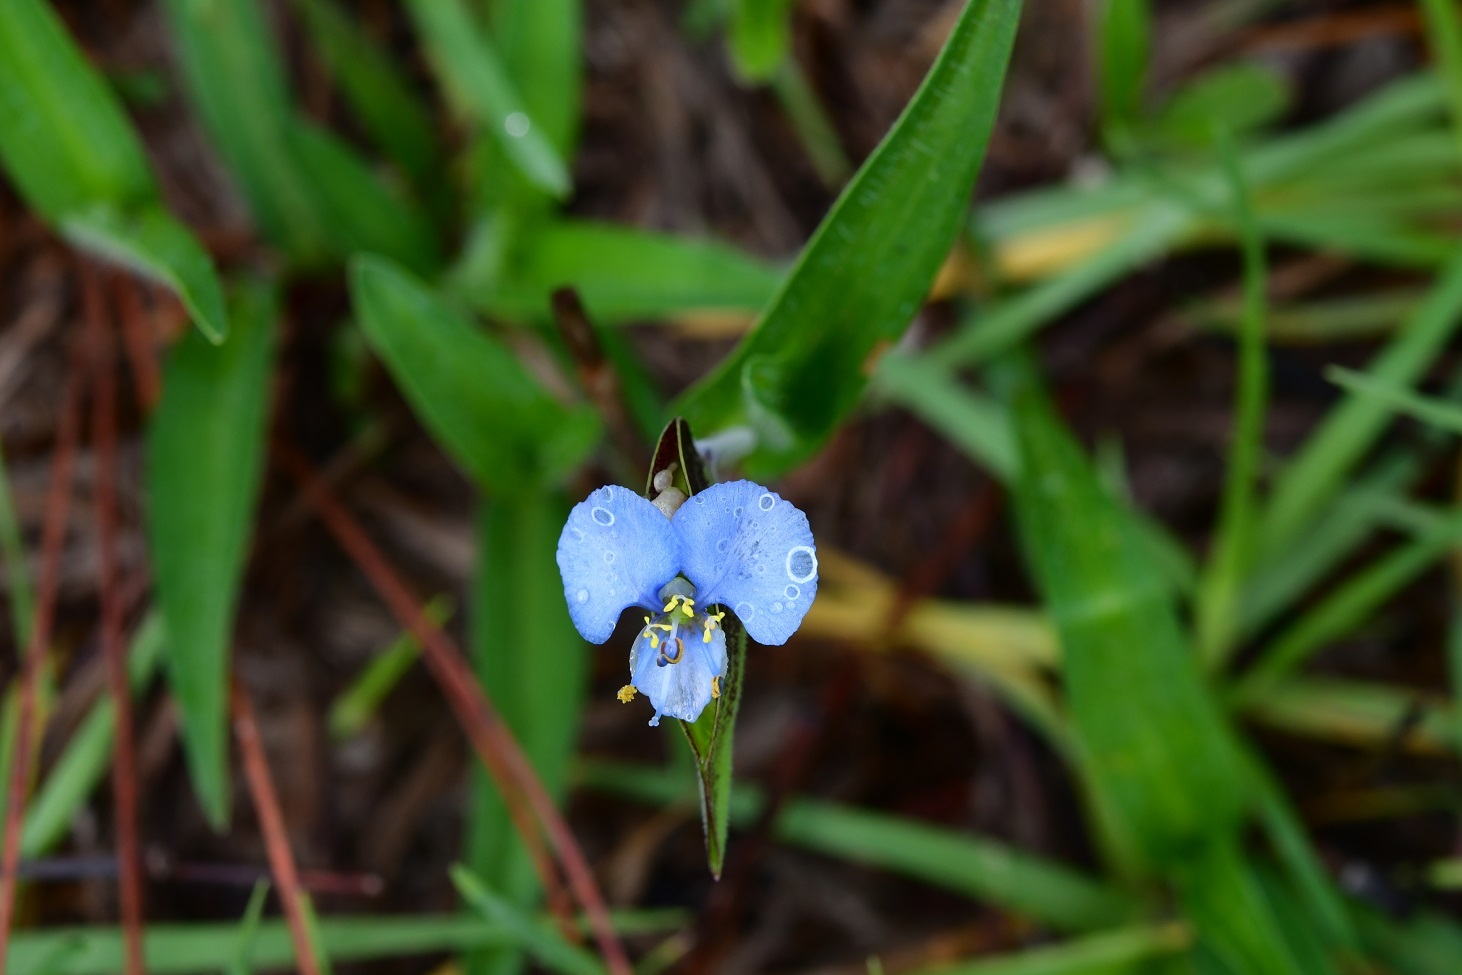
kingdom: Plantae
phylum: Tracheophyta
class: Liliopsida
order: Commelinales
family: Commelinaceae
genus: Commelina
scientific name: Commelina tuberosa
